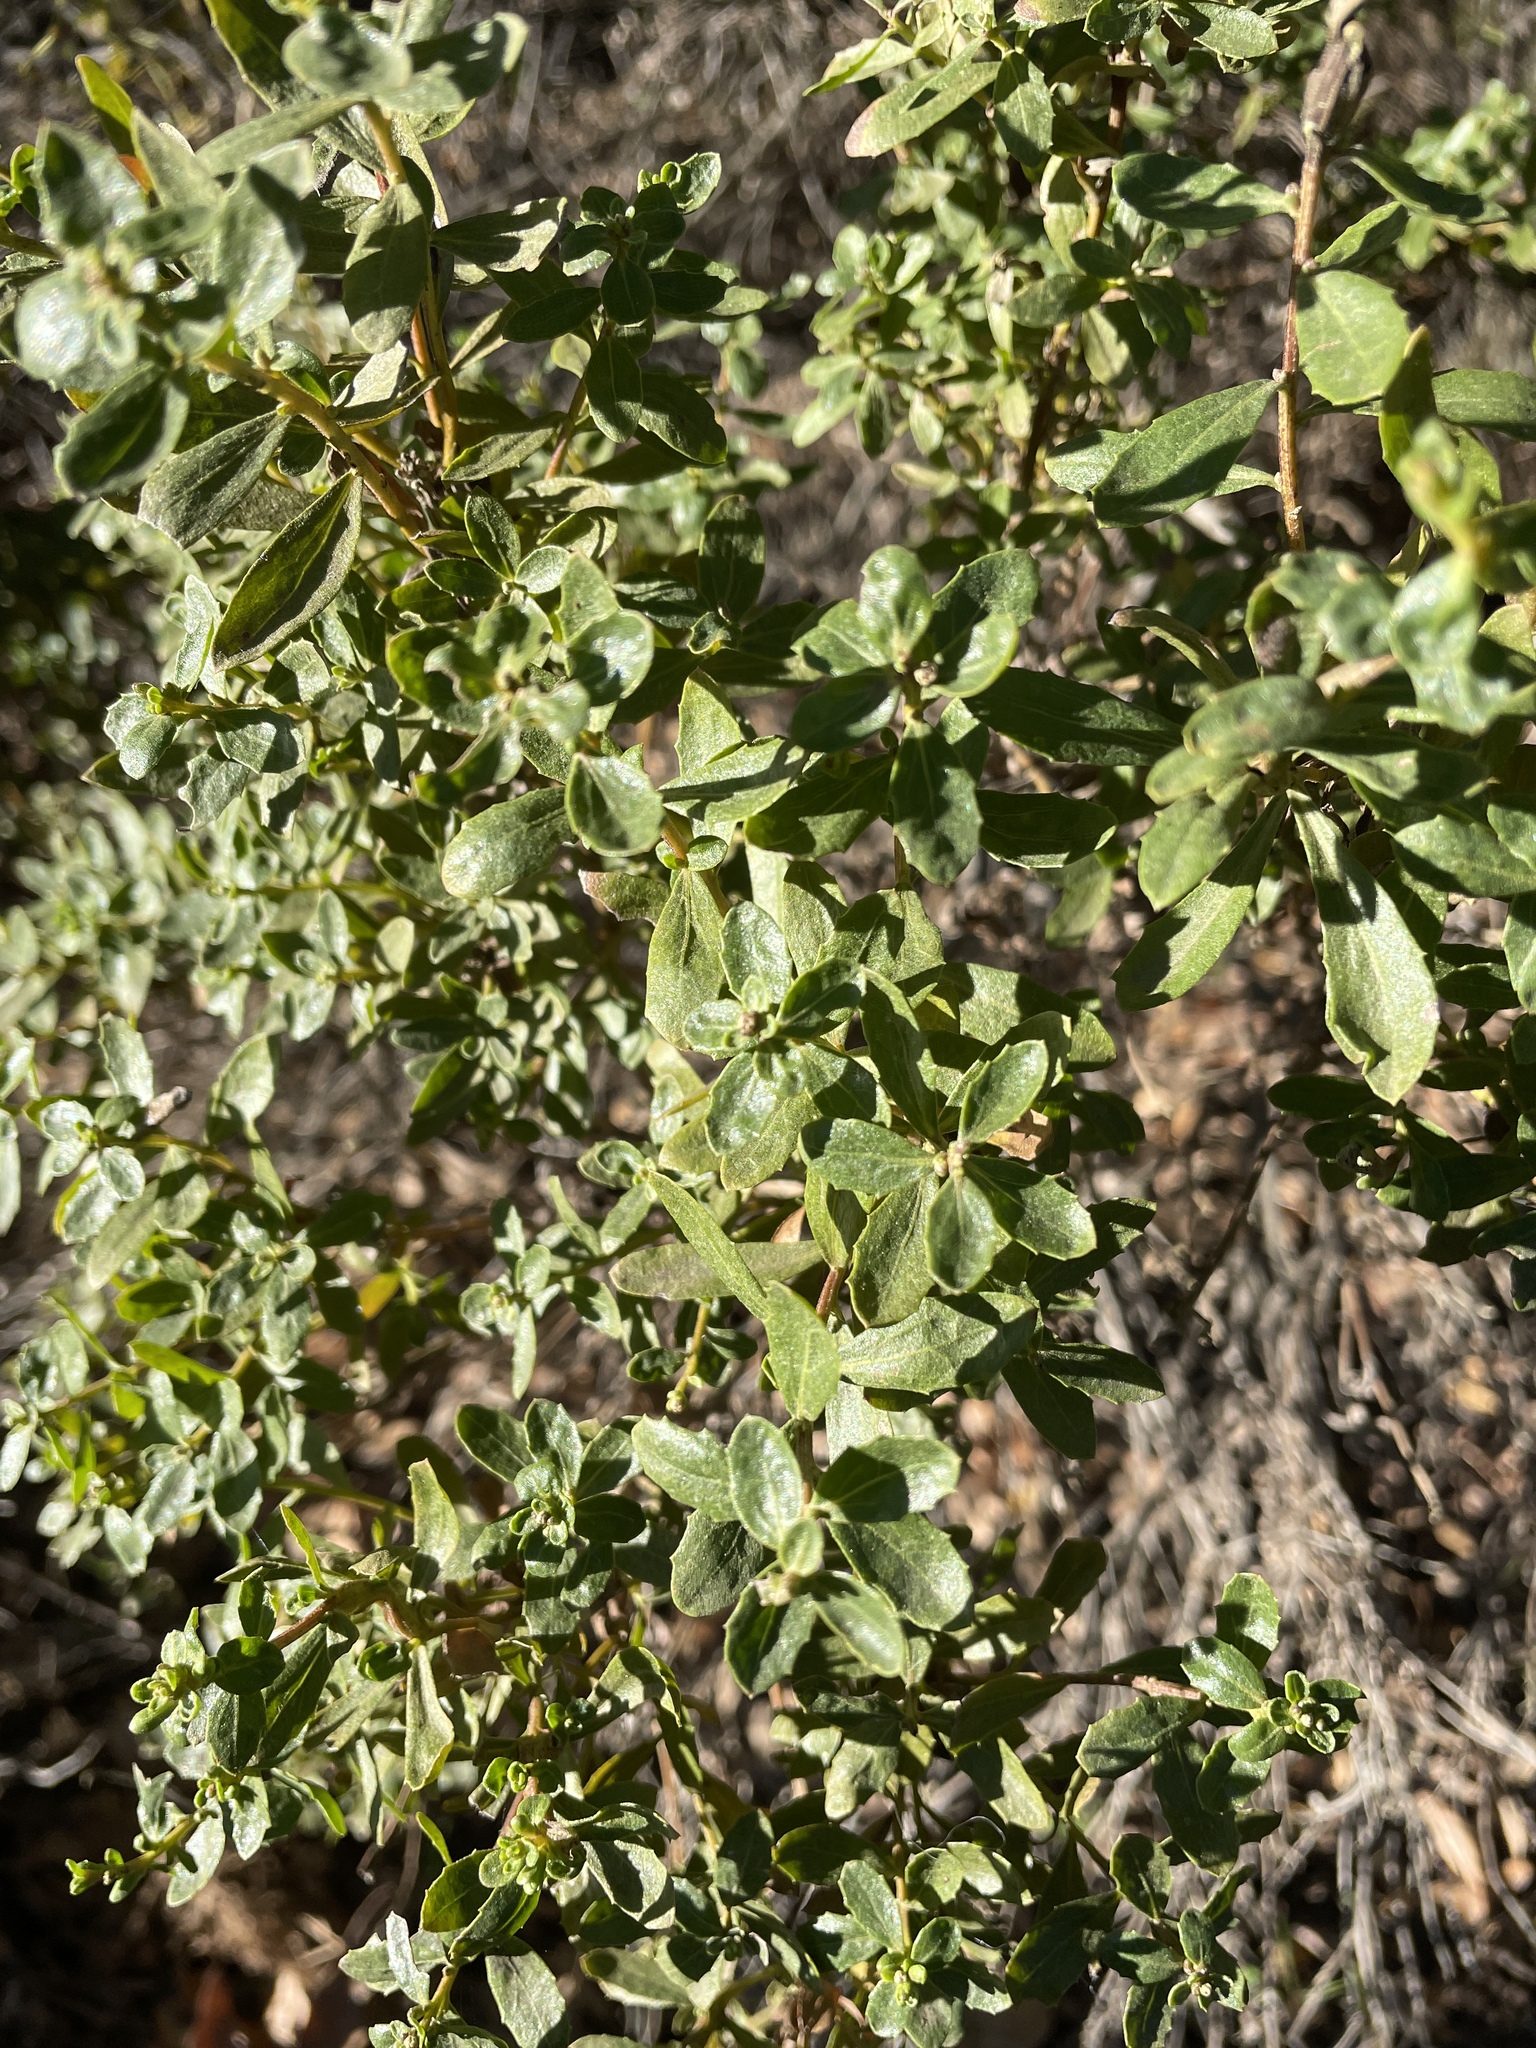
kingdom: Plantae
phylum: Tracheophyta
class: Magnoliopsida
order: Asterales
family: Asteraceae
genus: Baccharis
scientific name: Baccharis pilularis
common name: Coyotebrush
